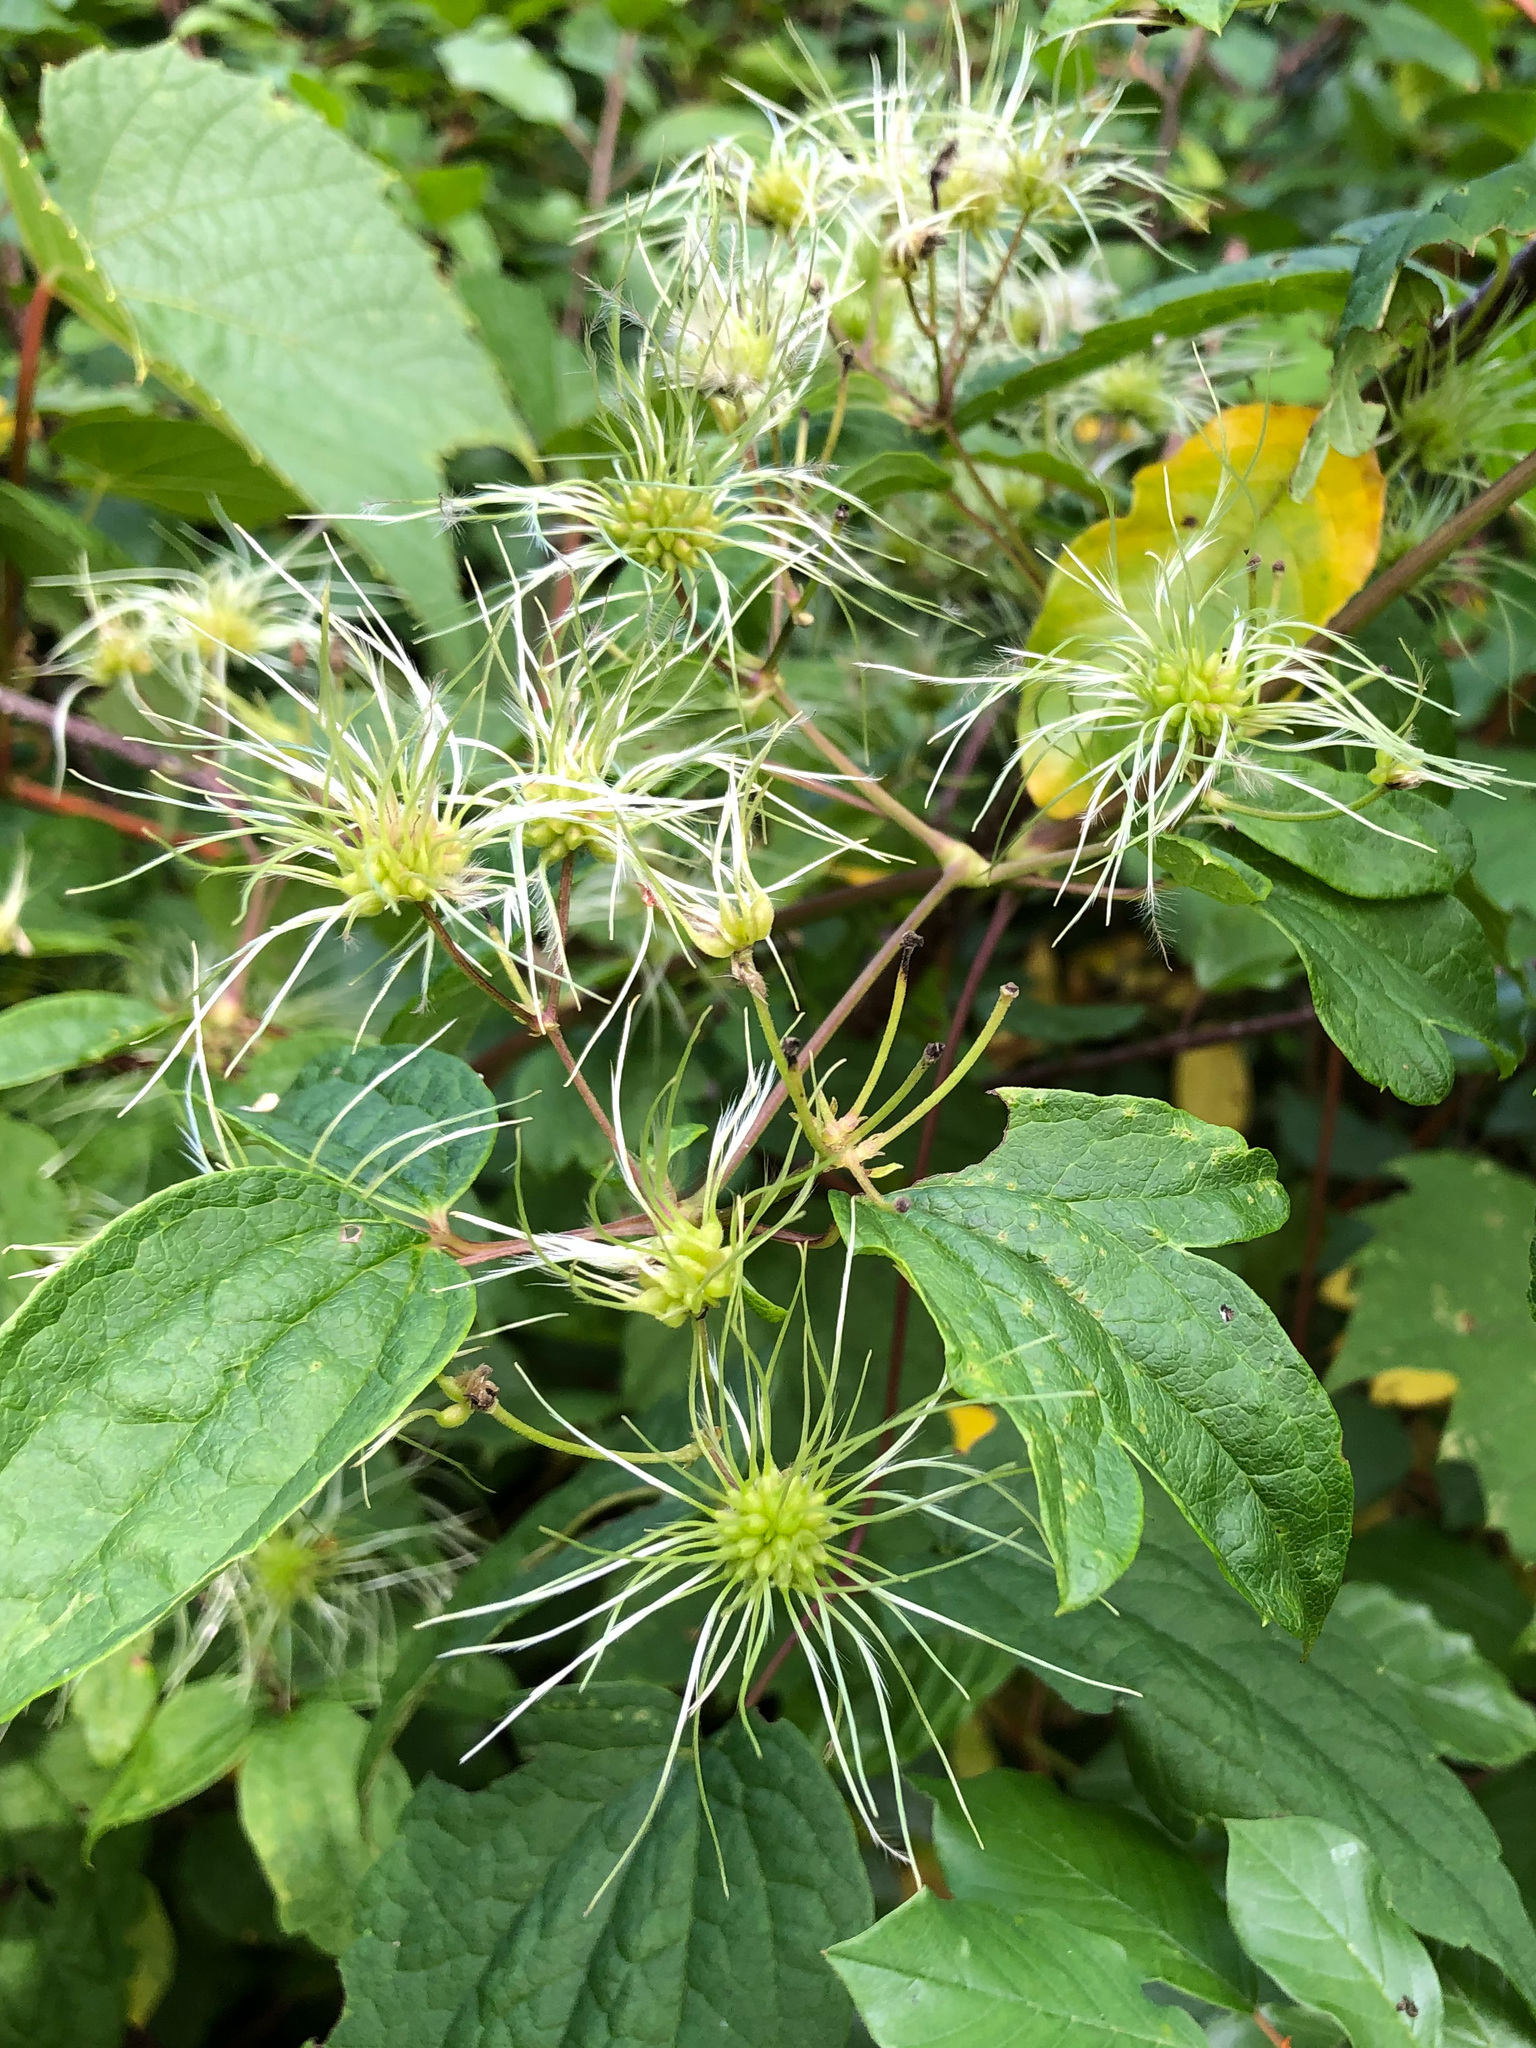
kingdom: Plantae
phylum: Tracheophyta
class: Magnoliopsida
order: Ranunculales
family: Ranunculaceae
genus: Clematis
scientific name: Clematis virginiana
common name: Virgin's-bower
